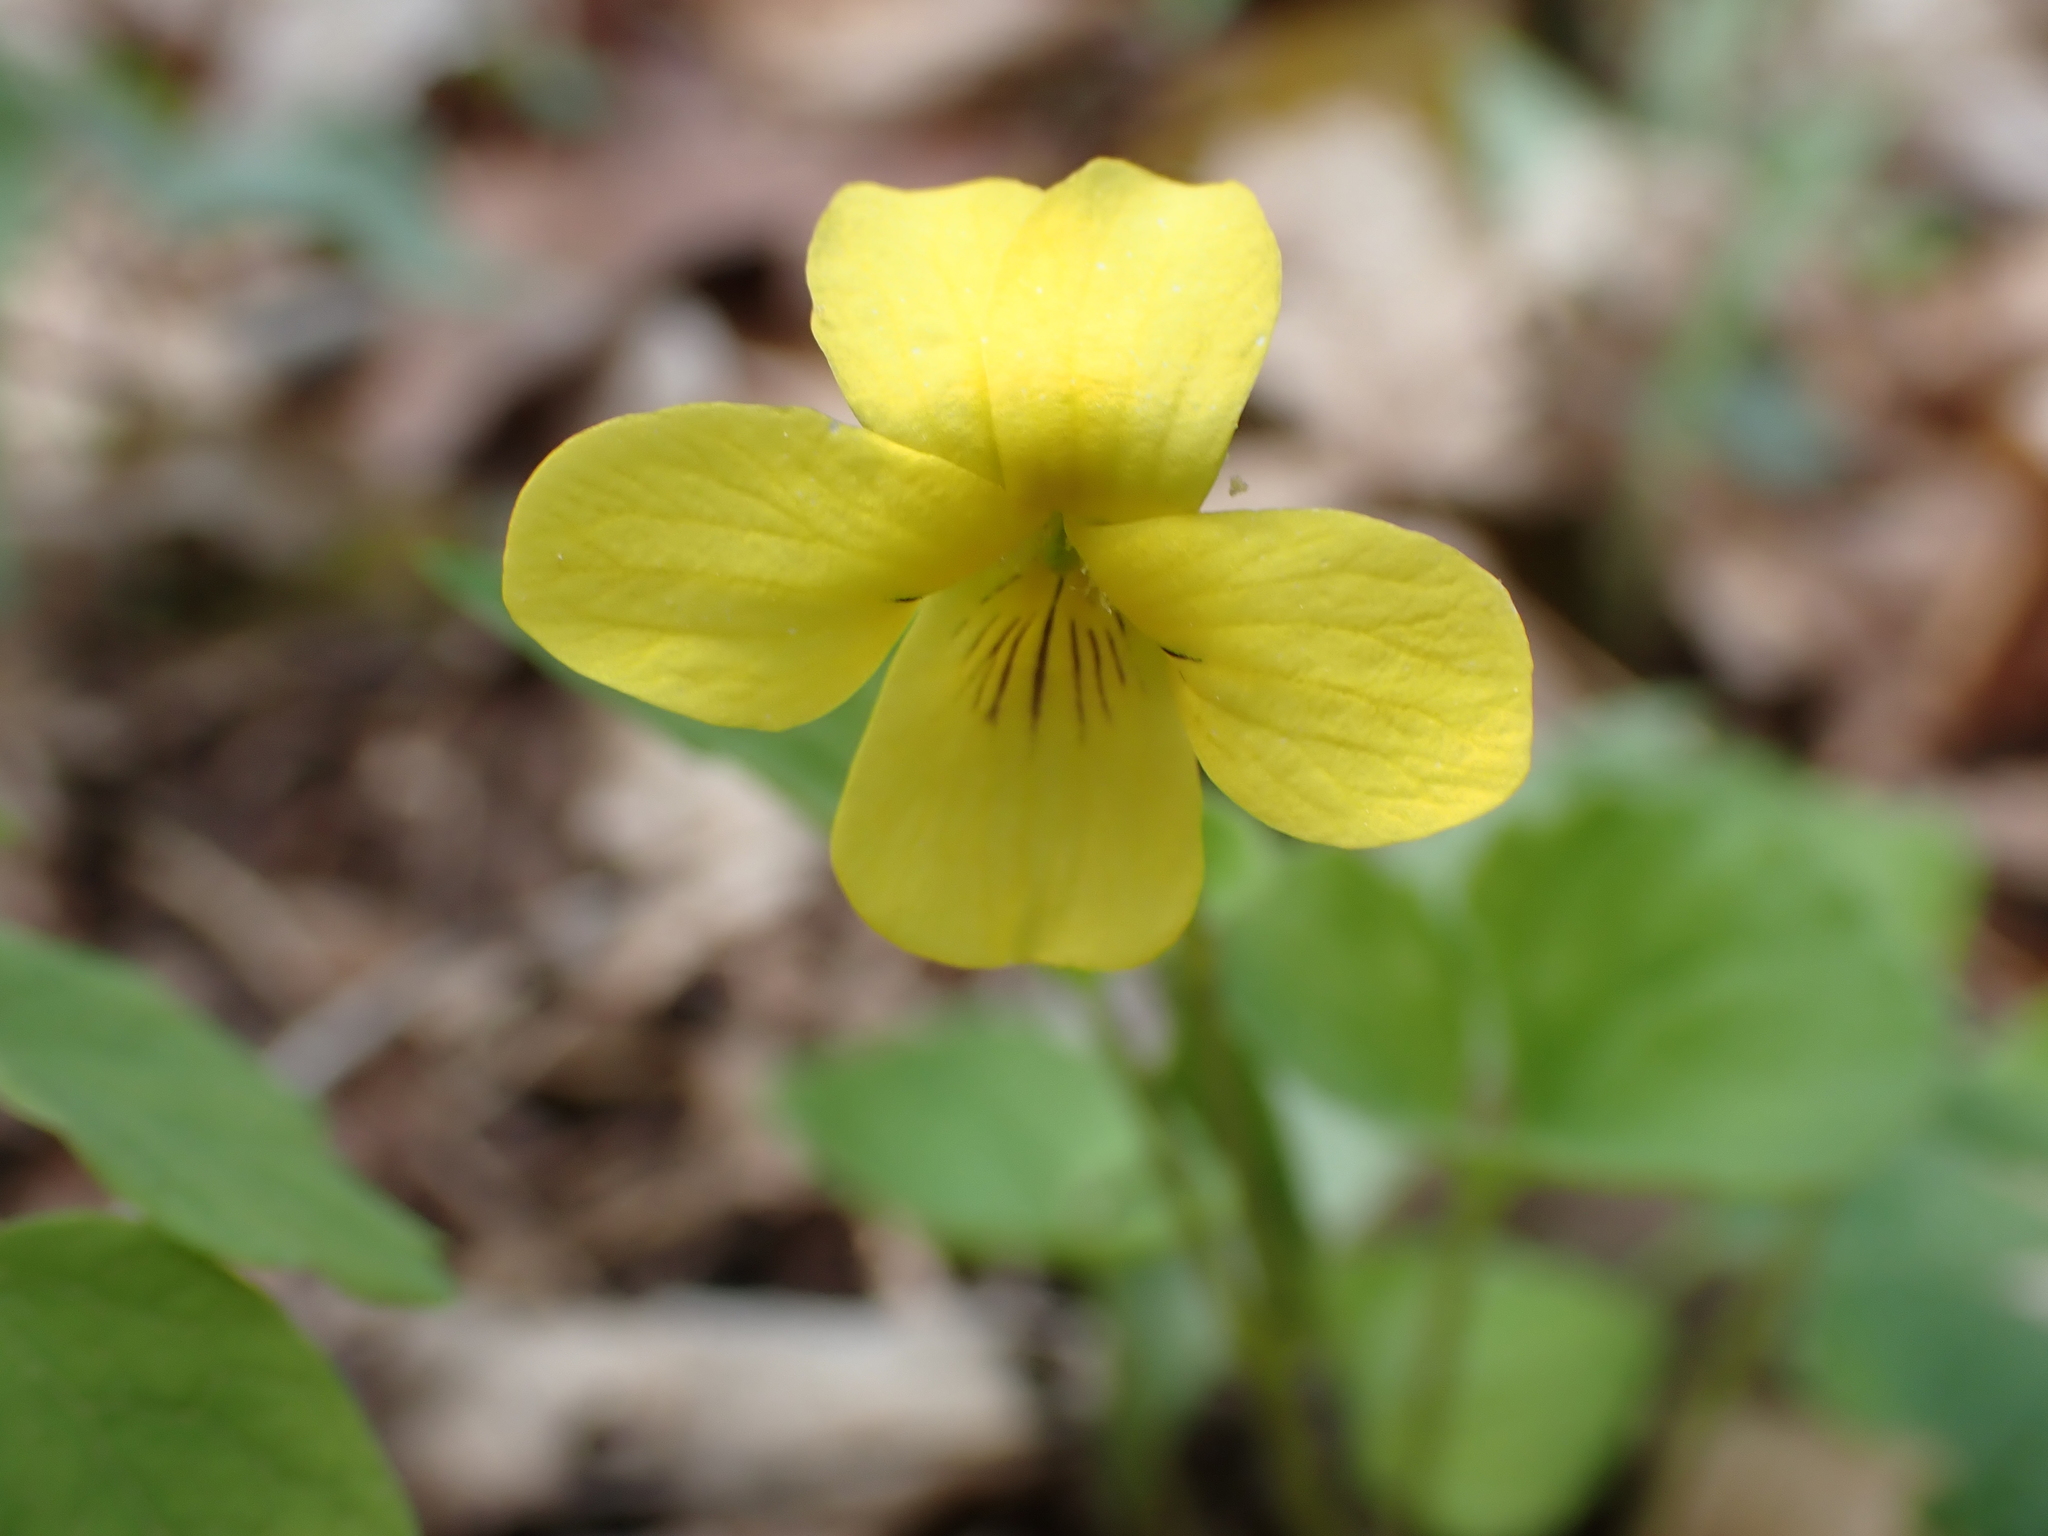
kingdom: Plantae
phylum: Tracheophyta
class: Magnoliopsida
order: Malpighiales
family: Violaceae
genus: Viola
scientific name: Viola eriocarpa
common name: Smooth yellow violet
